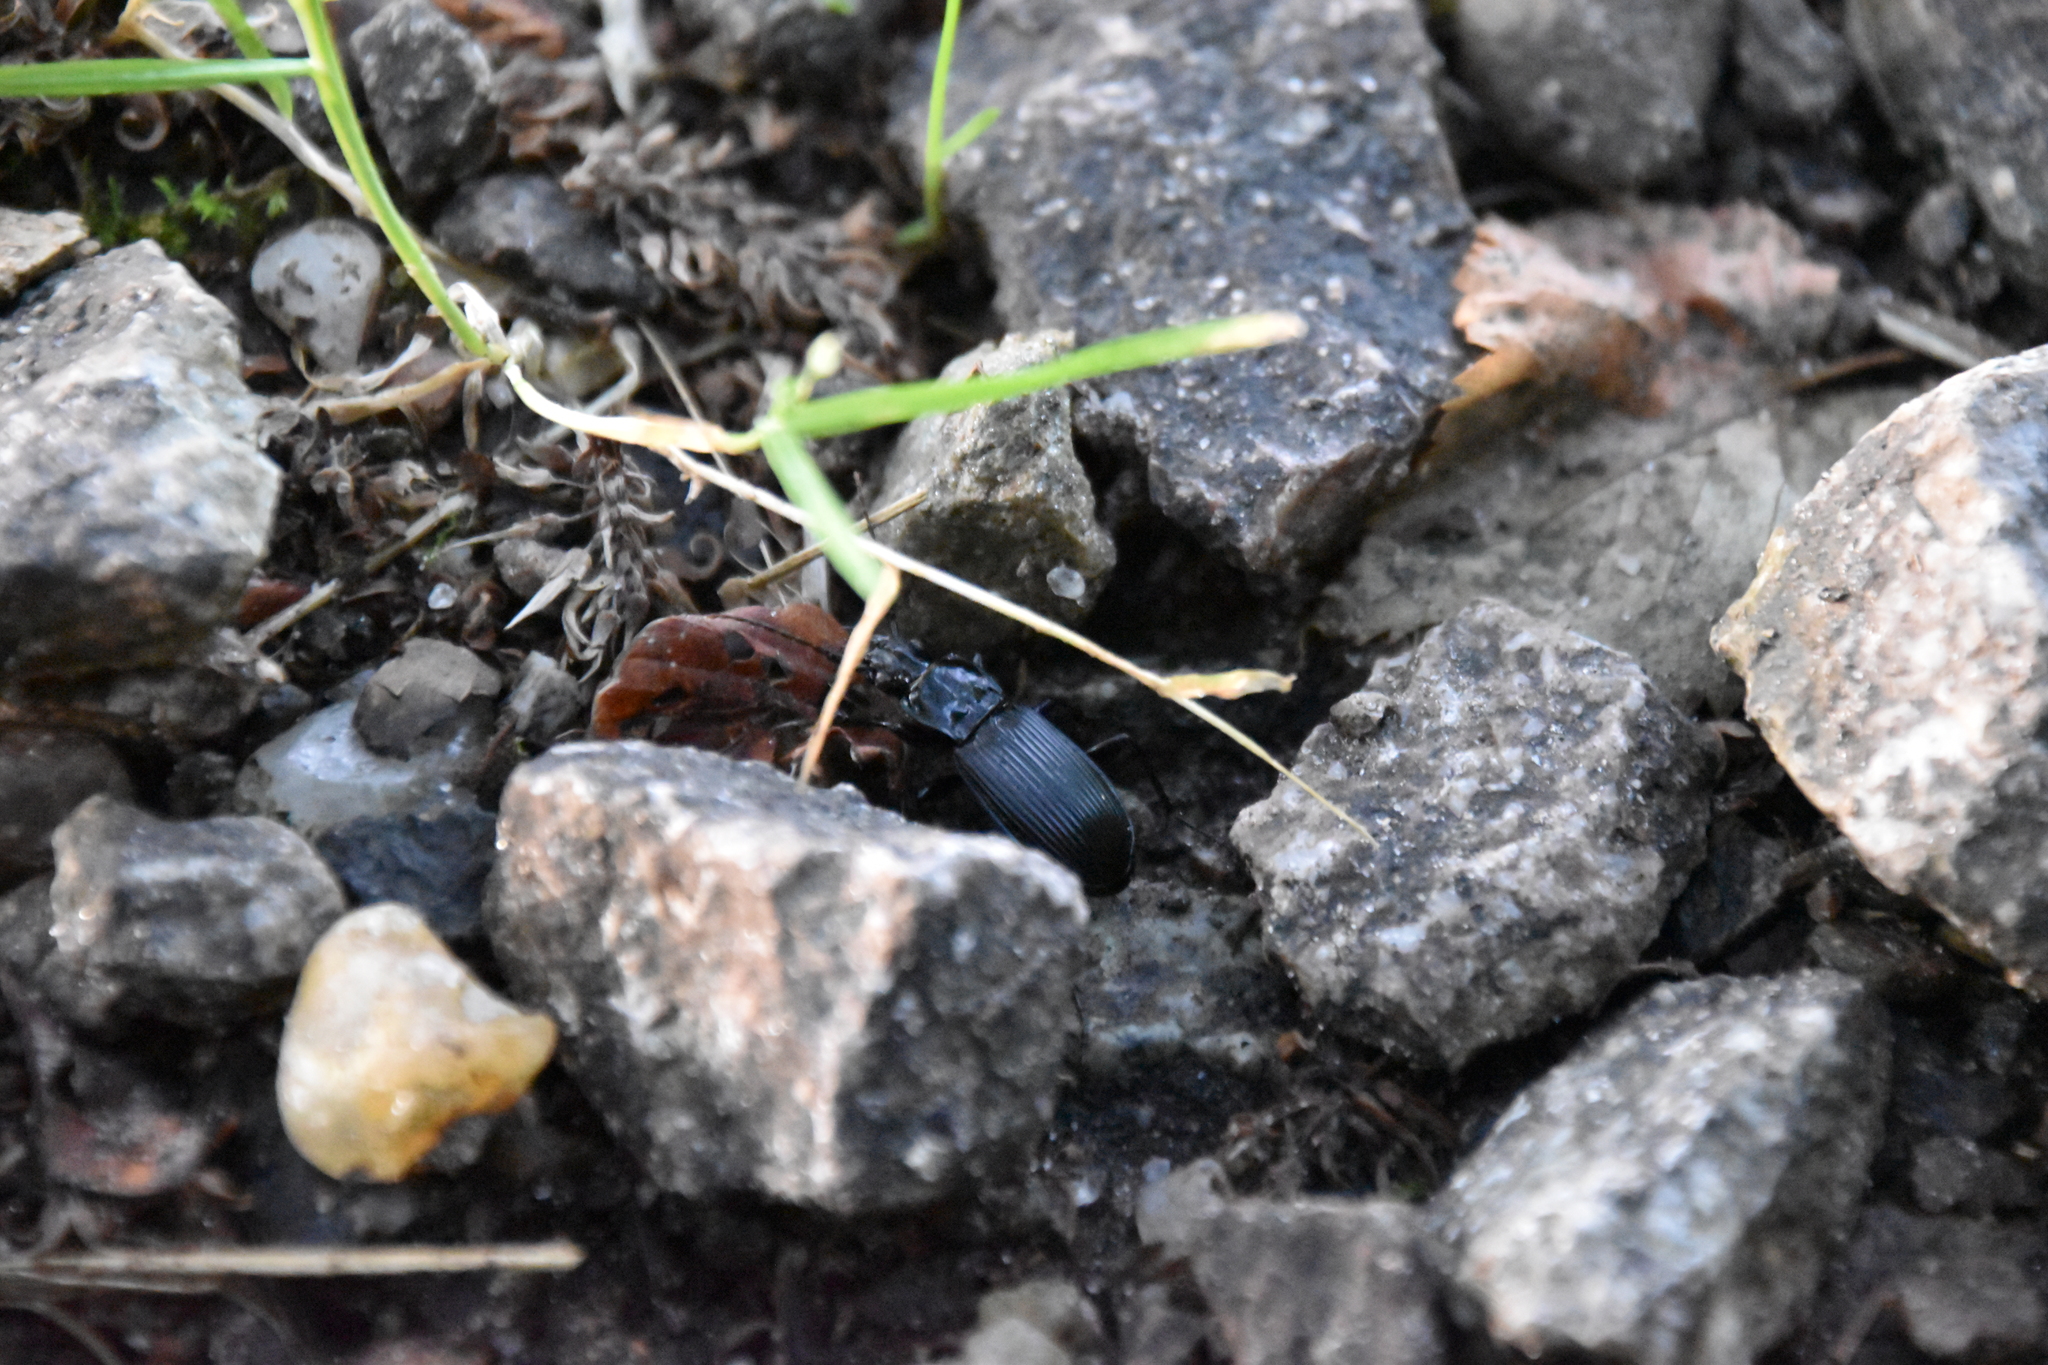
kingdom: Animalia
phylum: Arthropoda
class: Insecta
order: Coleoptera
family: Carabidae
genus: Pterostichus
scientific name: Pterostichus niger
